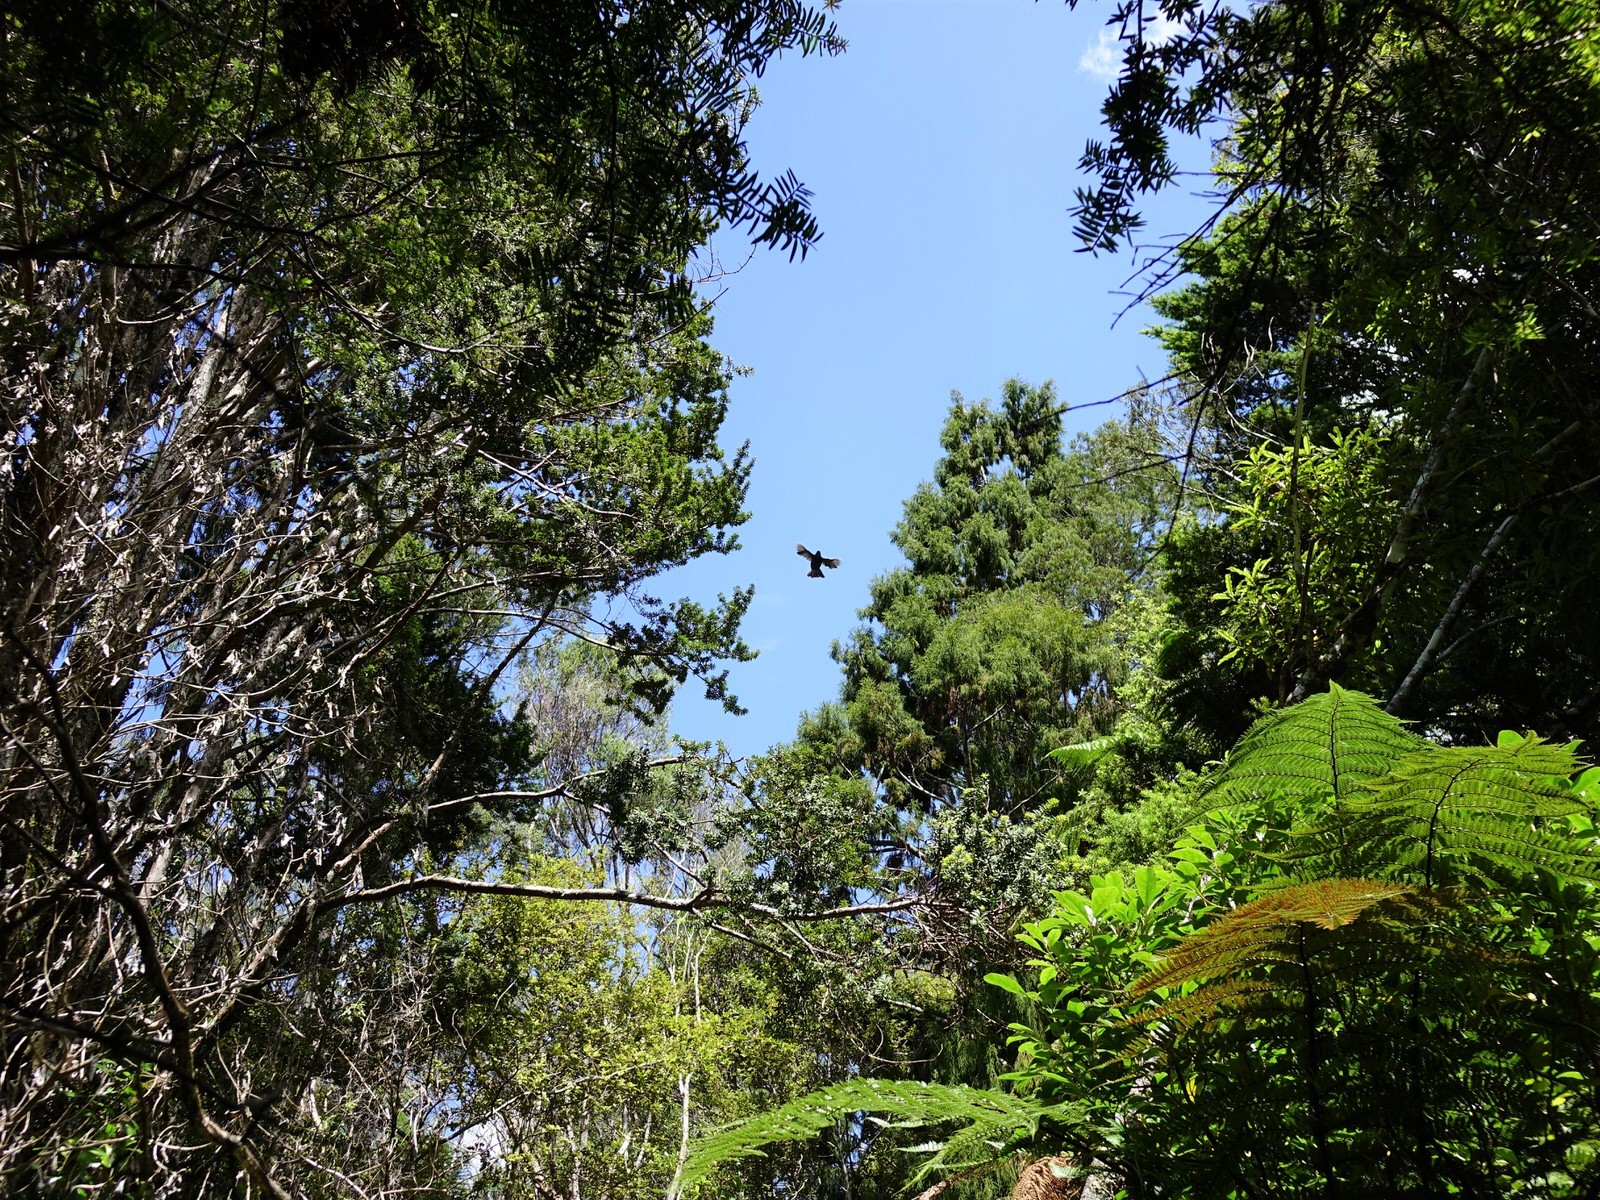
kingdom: Animalia
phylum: Chordata
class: Aves
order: Passeriformes
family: Callaeatidae
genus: Callaeas
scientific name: Callaeas cinereus
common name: South island kokako
